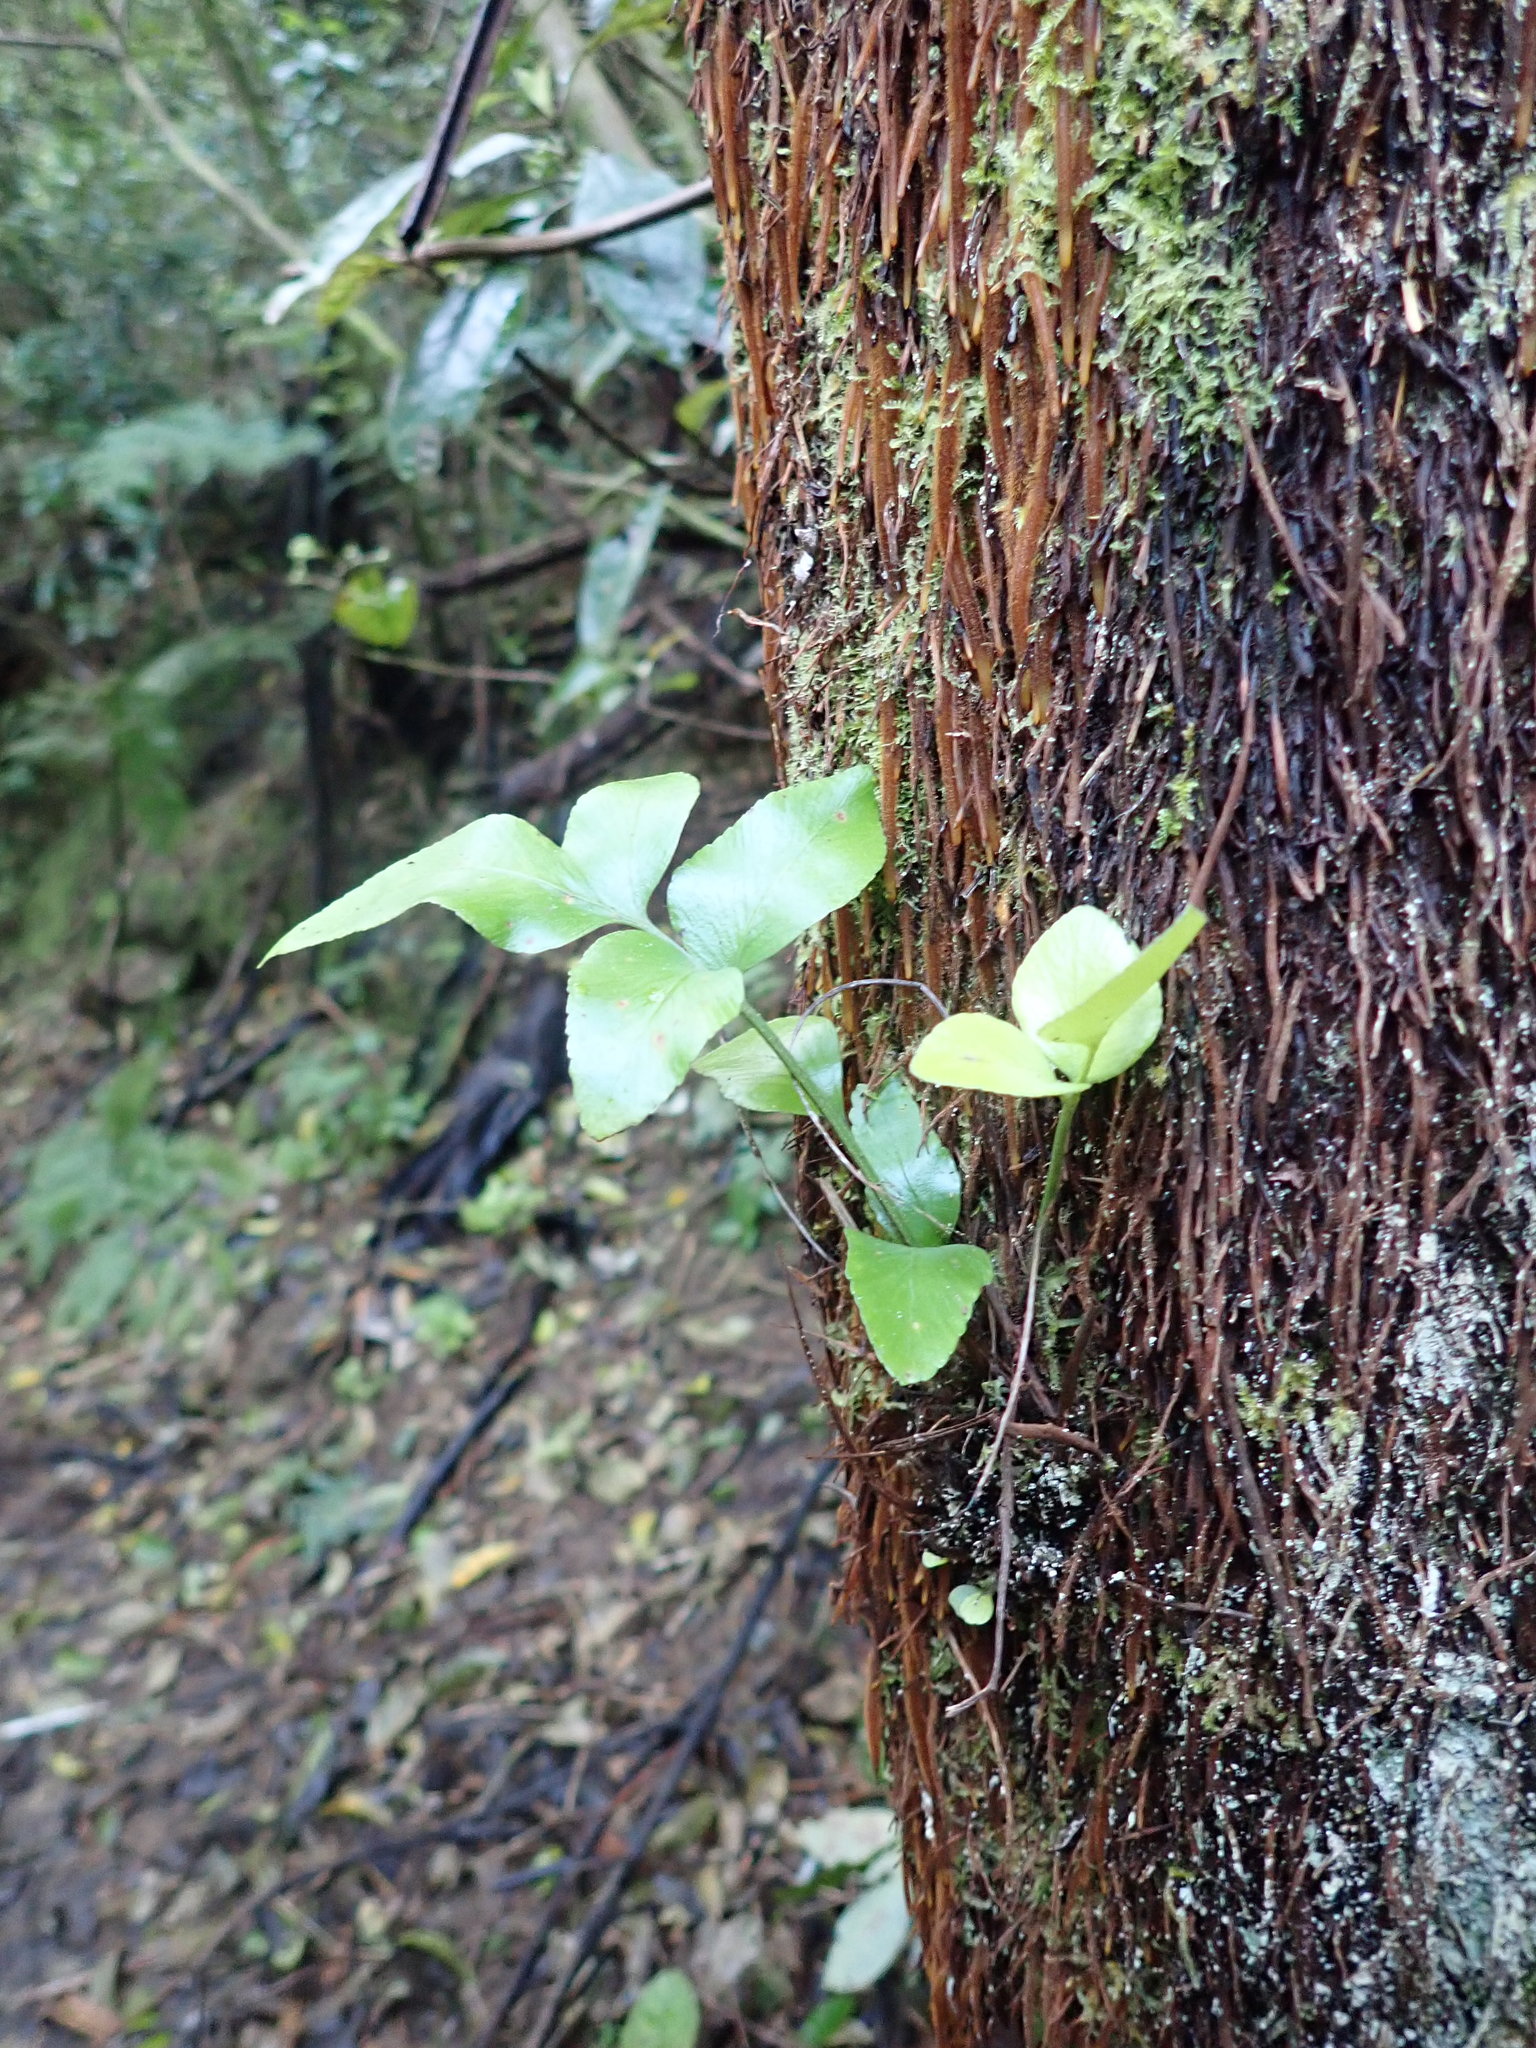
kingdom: Plantae
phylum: Tracheophyta
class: Polypodiopsida
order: Polypodiales
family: Aspleniaceae
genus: Asplenium
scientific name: Asplenium oblongifolium
